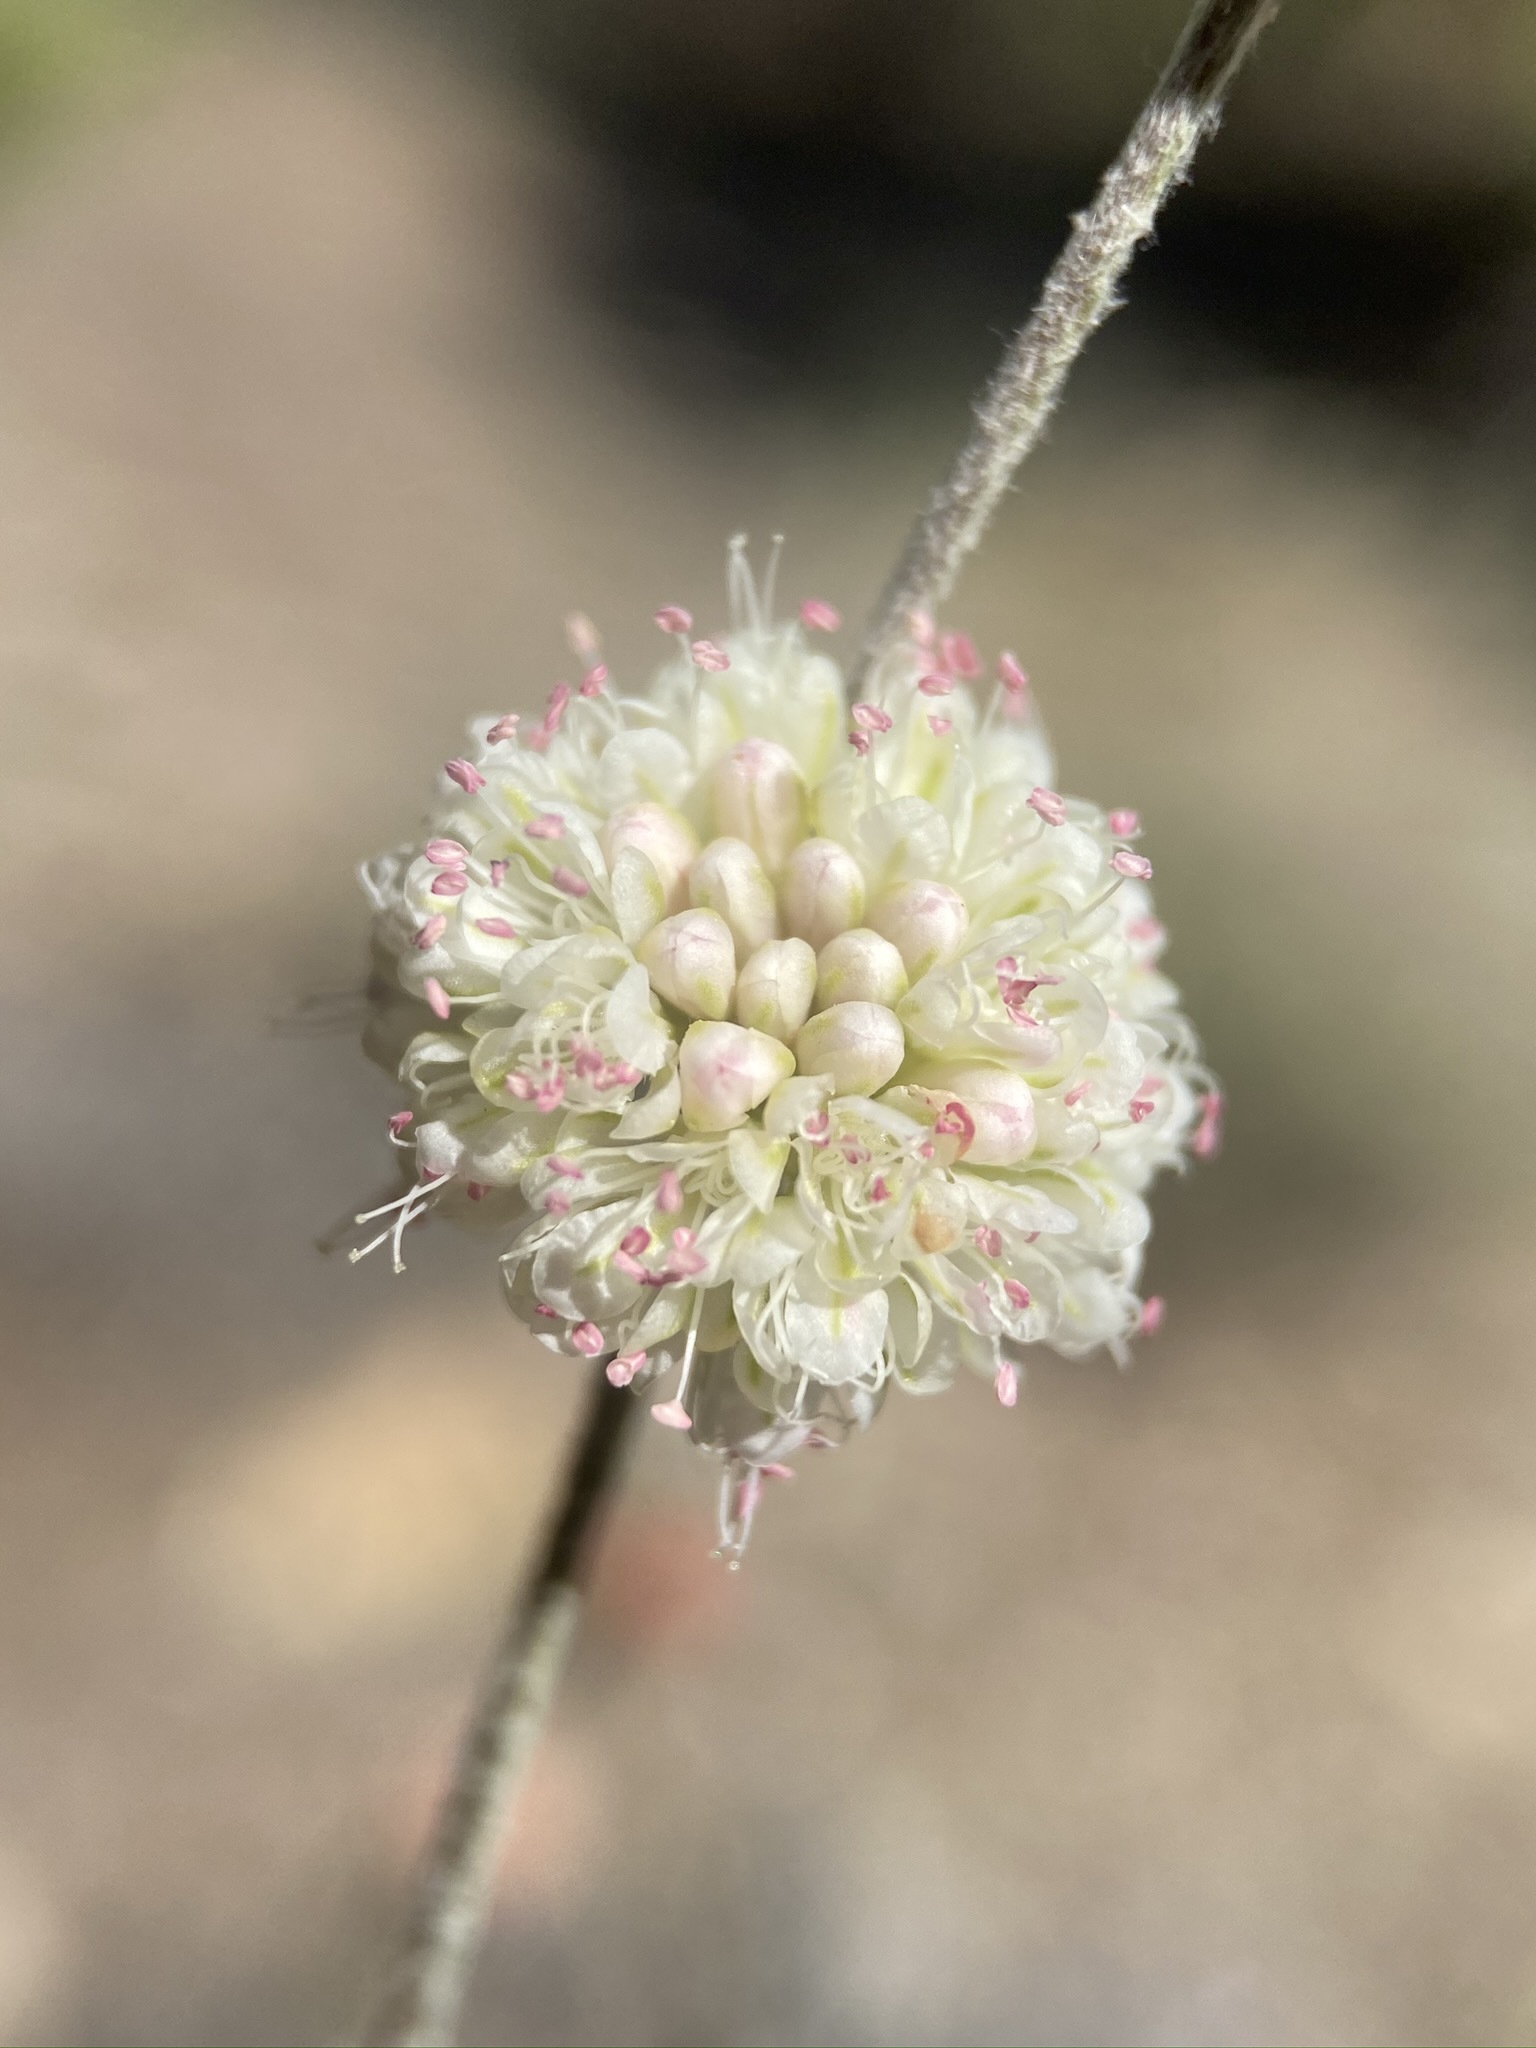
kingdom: Plantae
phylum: Tracheophyta
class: Magnoliopsida
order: Caryophyllales
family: Polygonaceae
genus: Eriogonum
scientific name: Eriogonum mensicola
